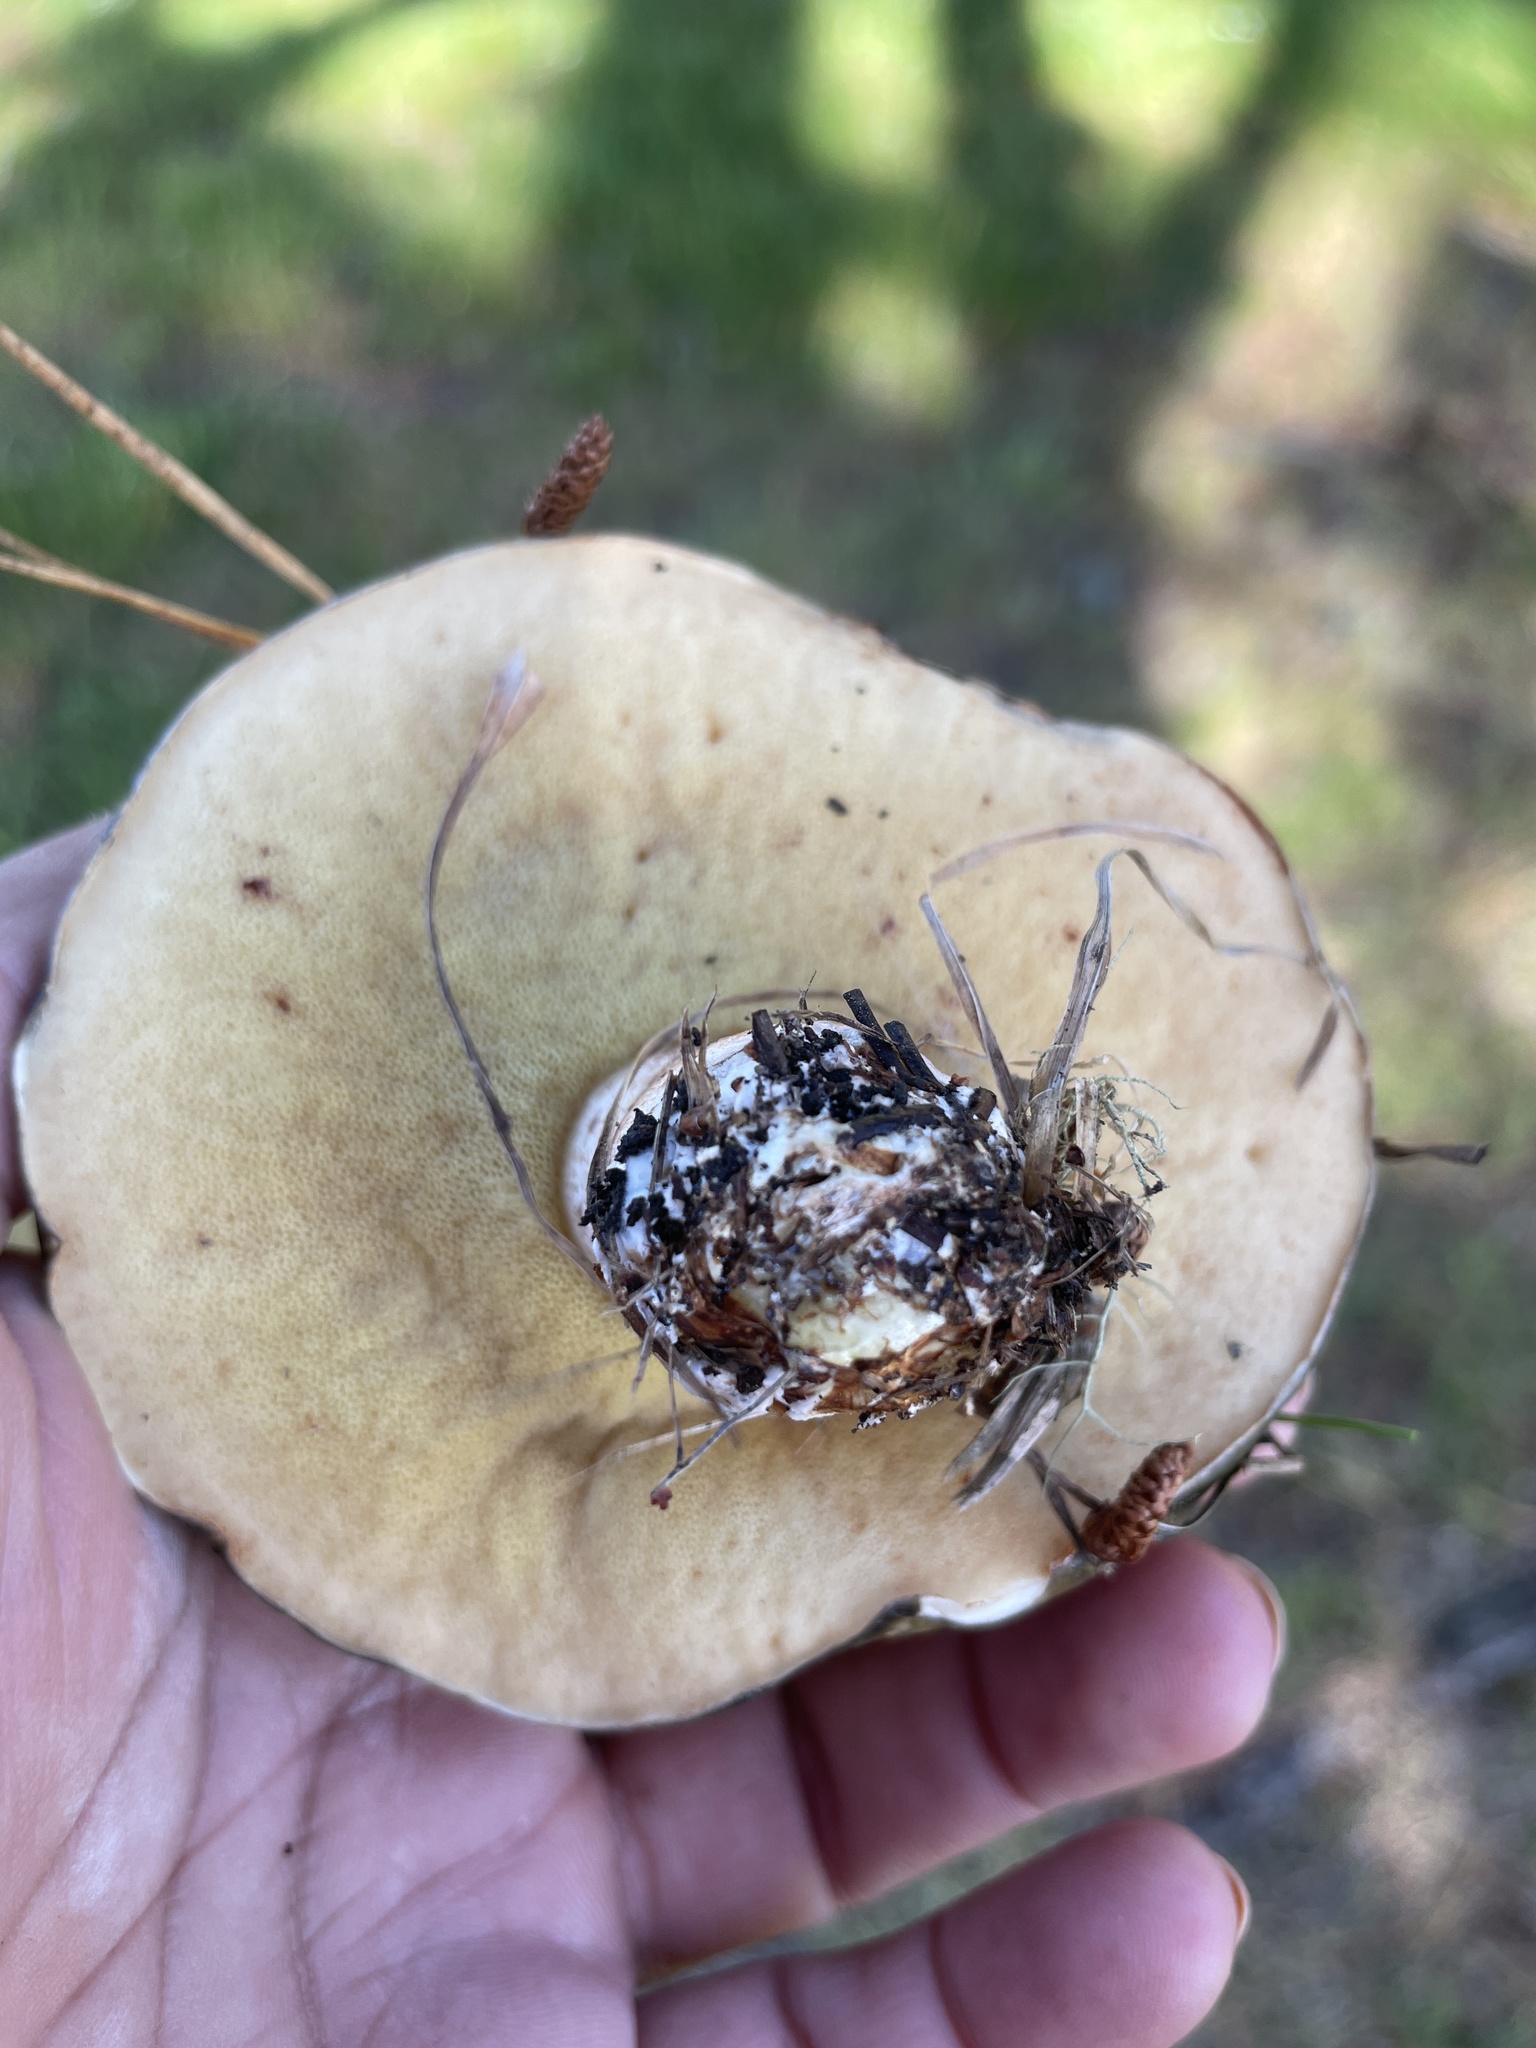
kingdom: Fungi
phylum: Basidiomycota
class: Agaricomycetes
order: Boletales
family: Suillaceae
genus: Suillus
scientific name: Suillus pungens
